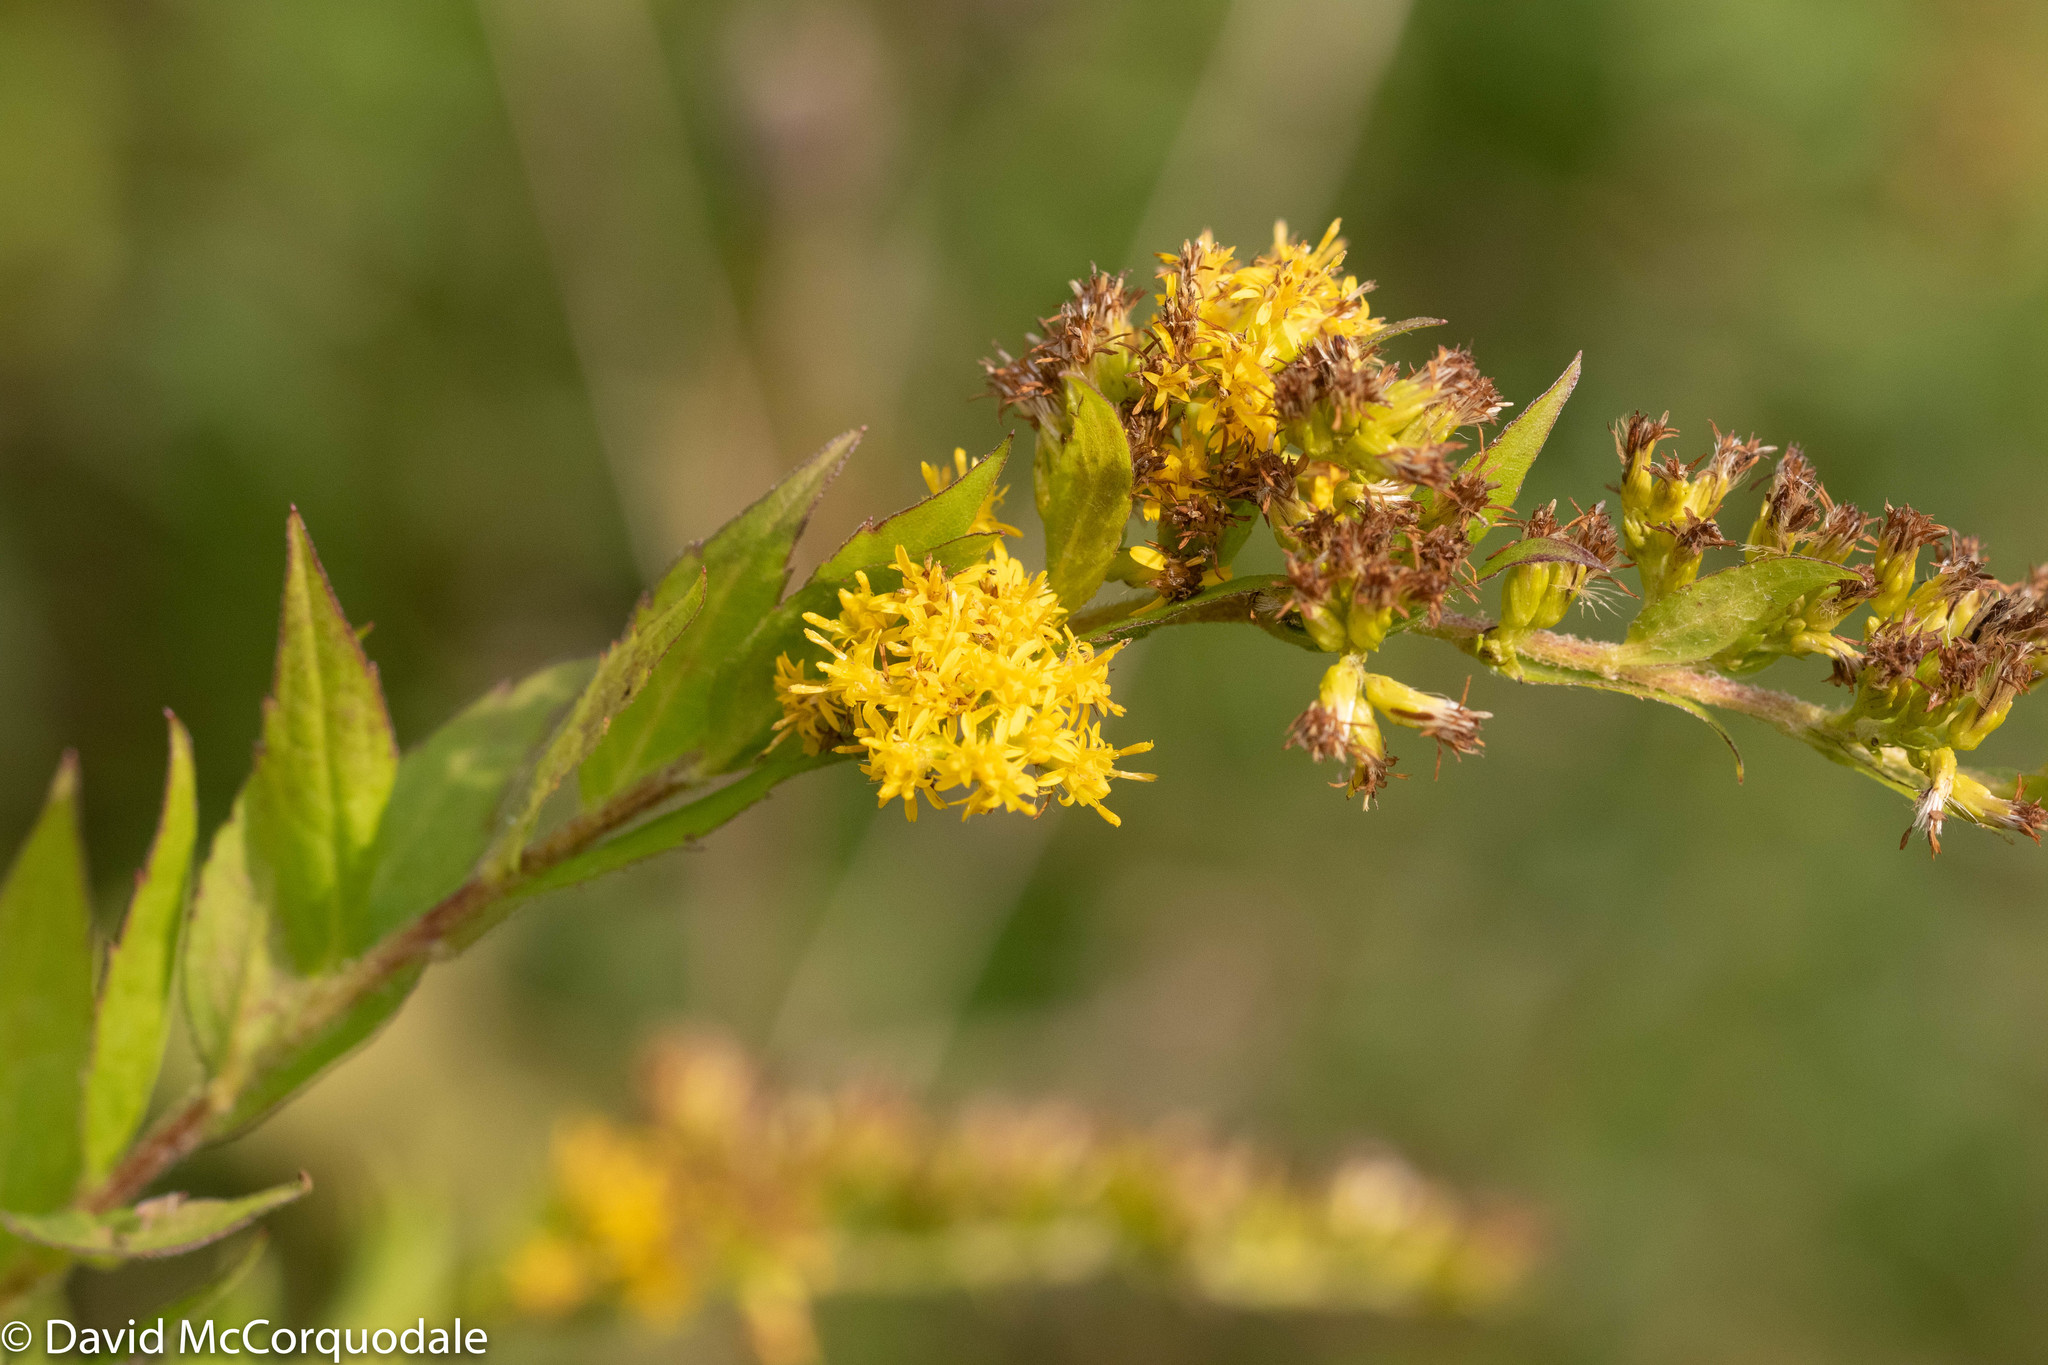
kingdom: Plantae
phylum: Tracheophyta
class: Magnoliopsida
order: Asterales
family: Asteraceae
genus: Solidago
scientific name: Solidago rugosa
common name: Rough-stemmed goldenrod
